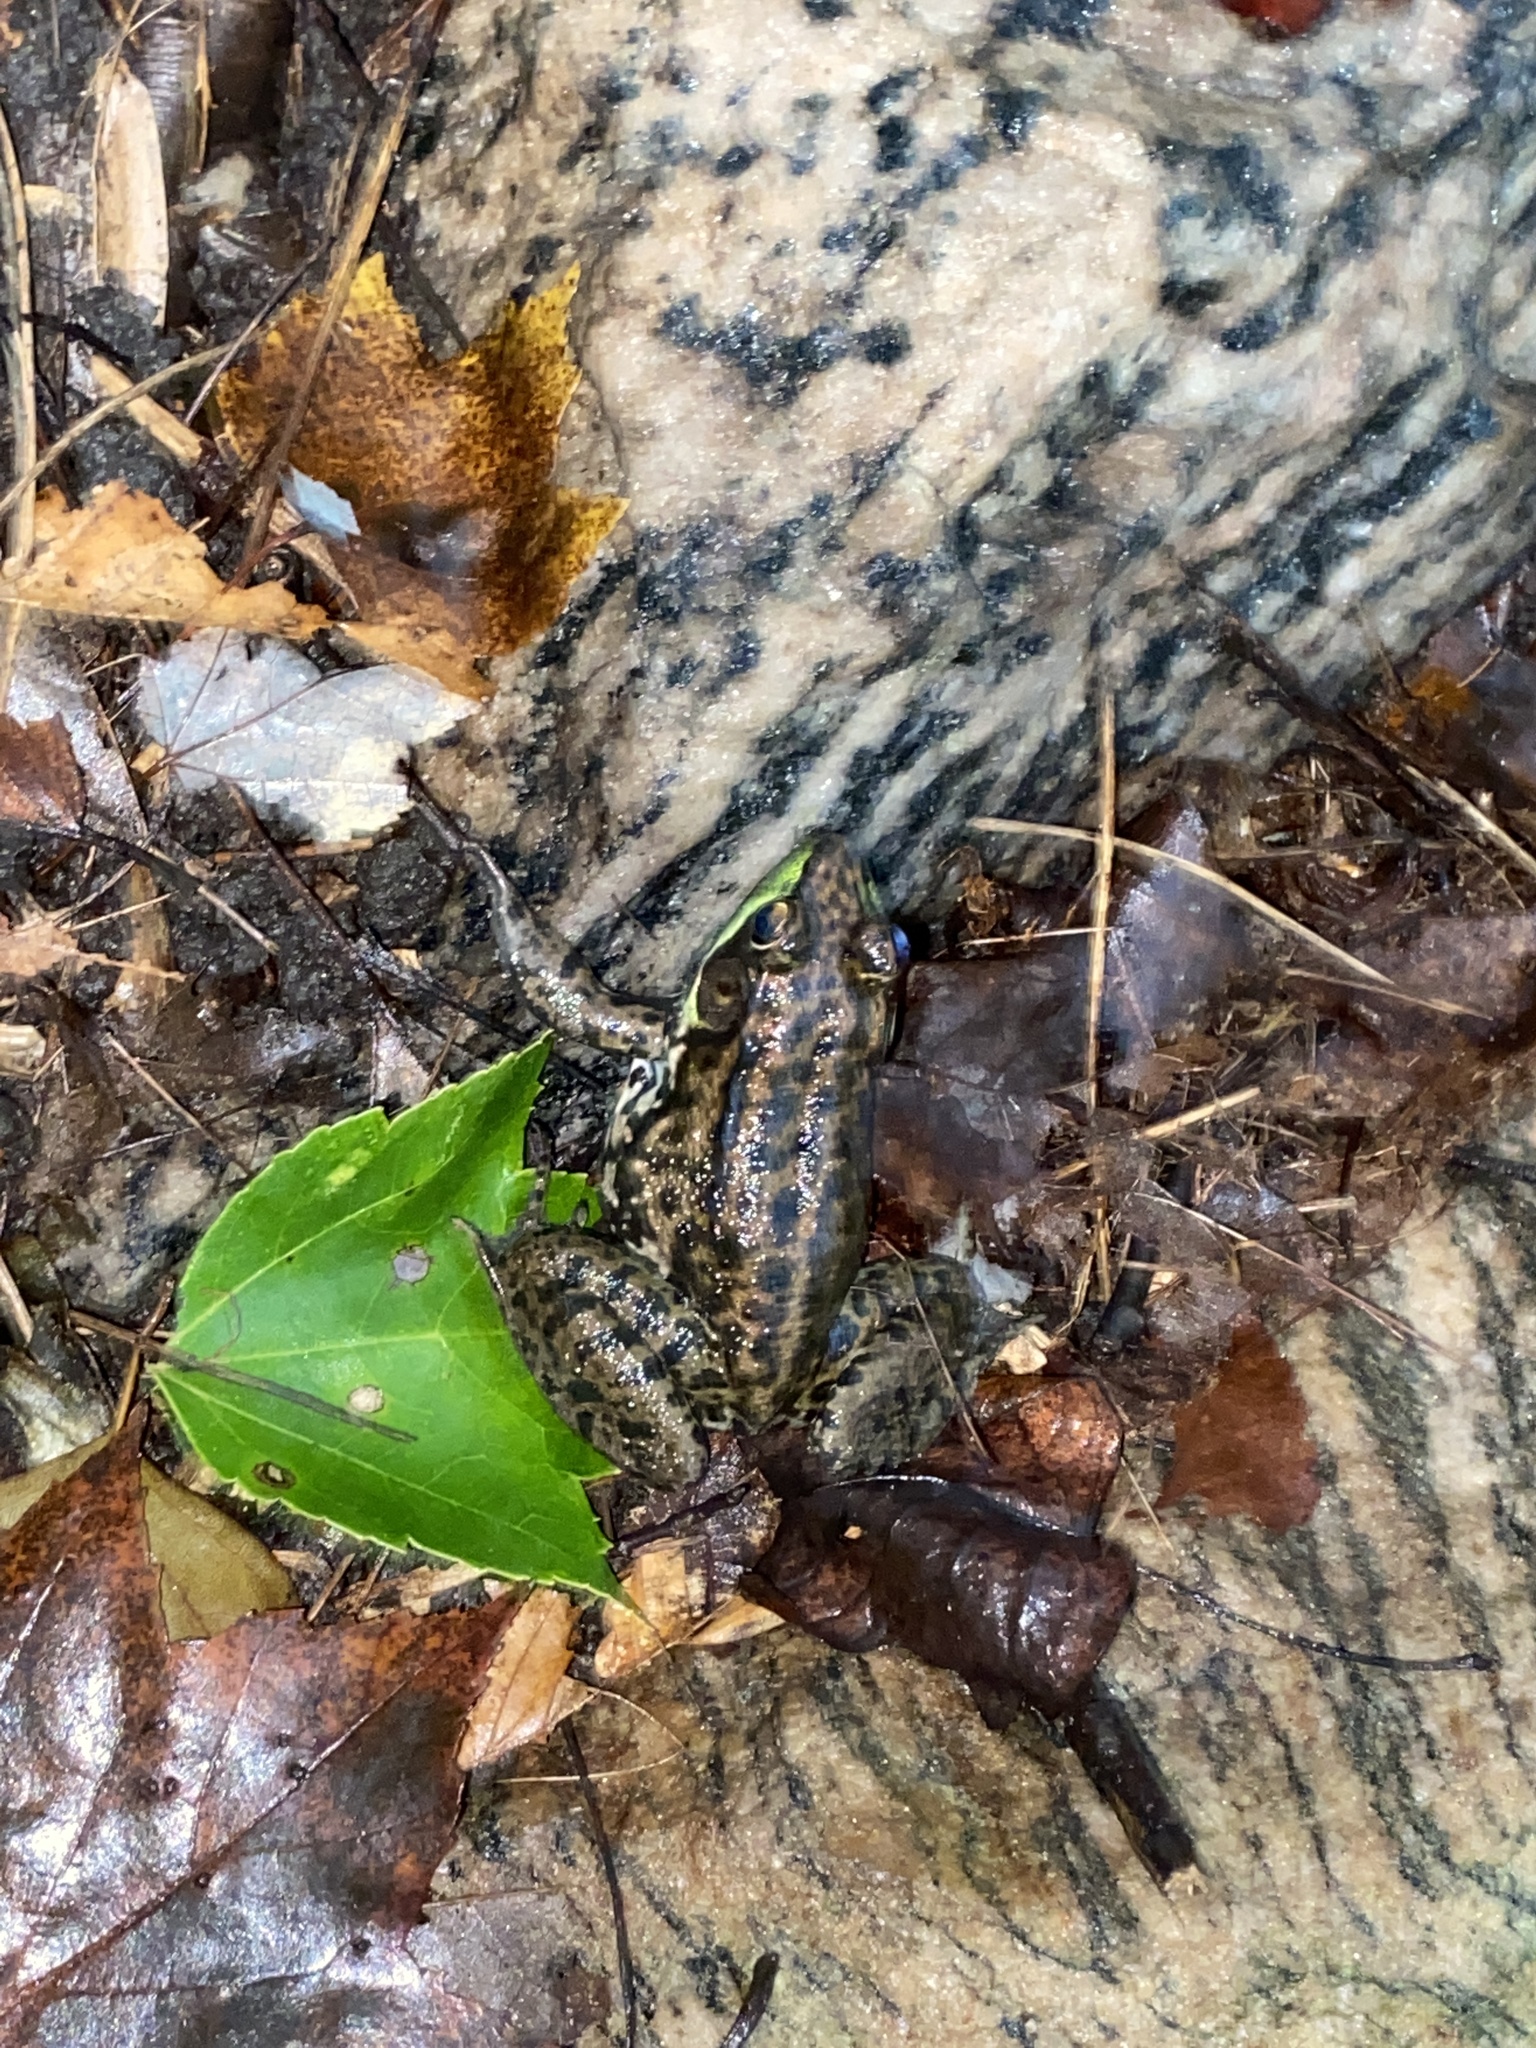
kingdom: Animalia
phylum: Chordata
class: Amphibia
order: Anura
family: Ranidae
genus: Lithobates
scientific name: Lithobates clamitans
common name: Green frog
